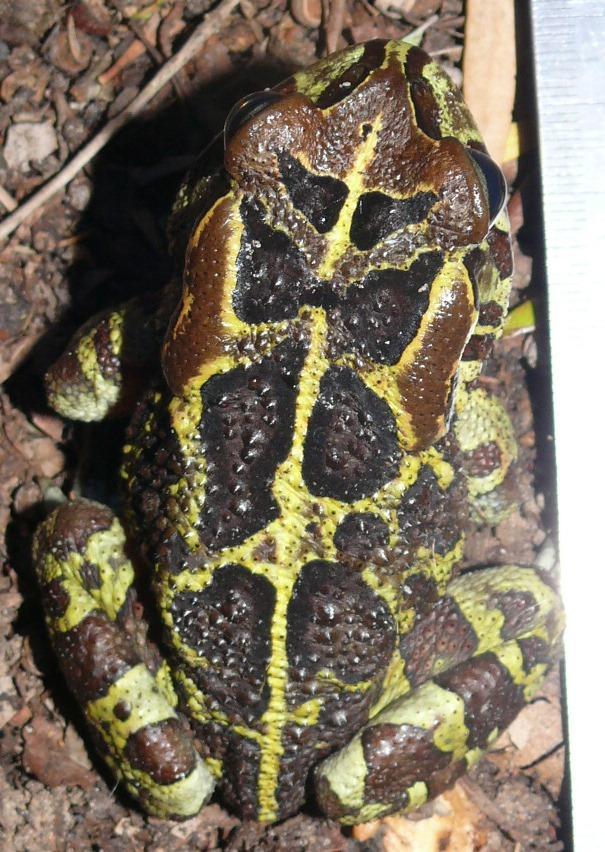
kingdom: Animalia
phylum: Chordata
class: Amphibia
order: Anura
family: Bufonidae
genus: Sclerophrys
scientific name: Sclerophrys pantherina
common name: Panther toad
